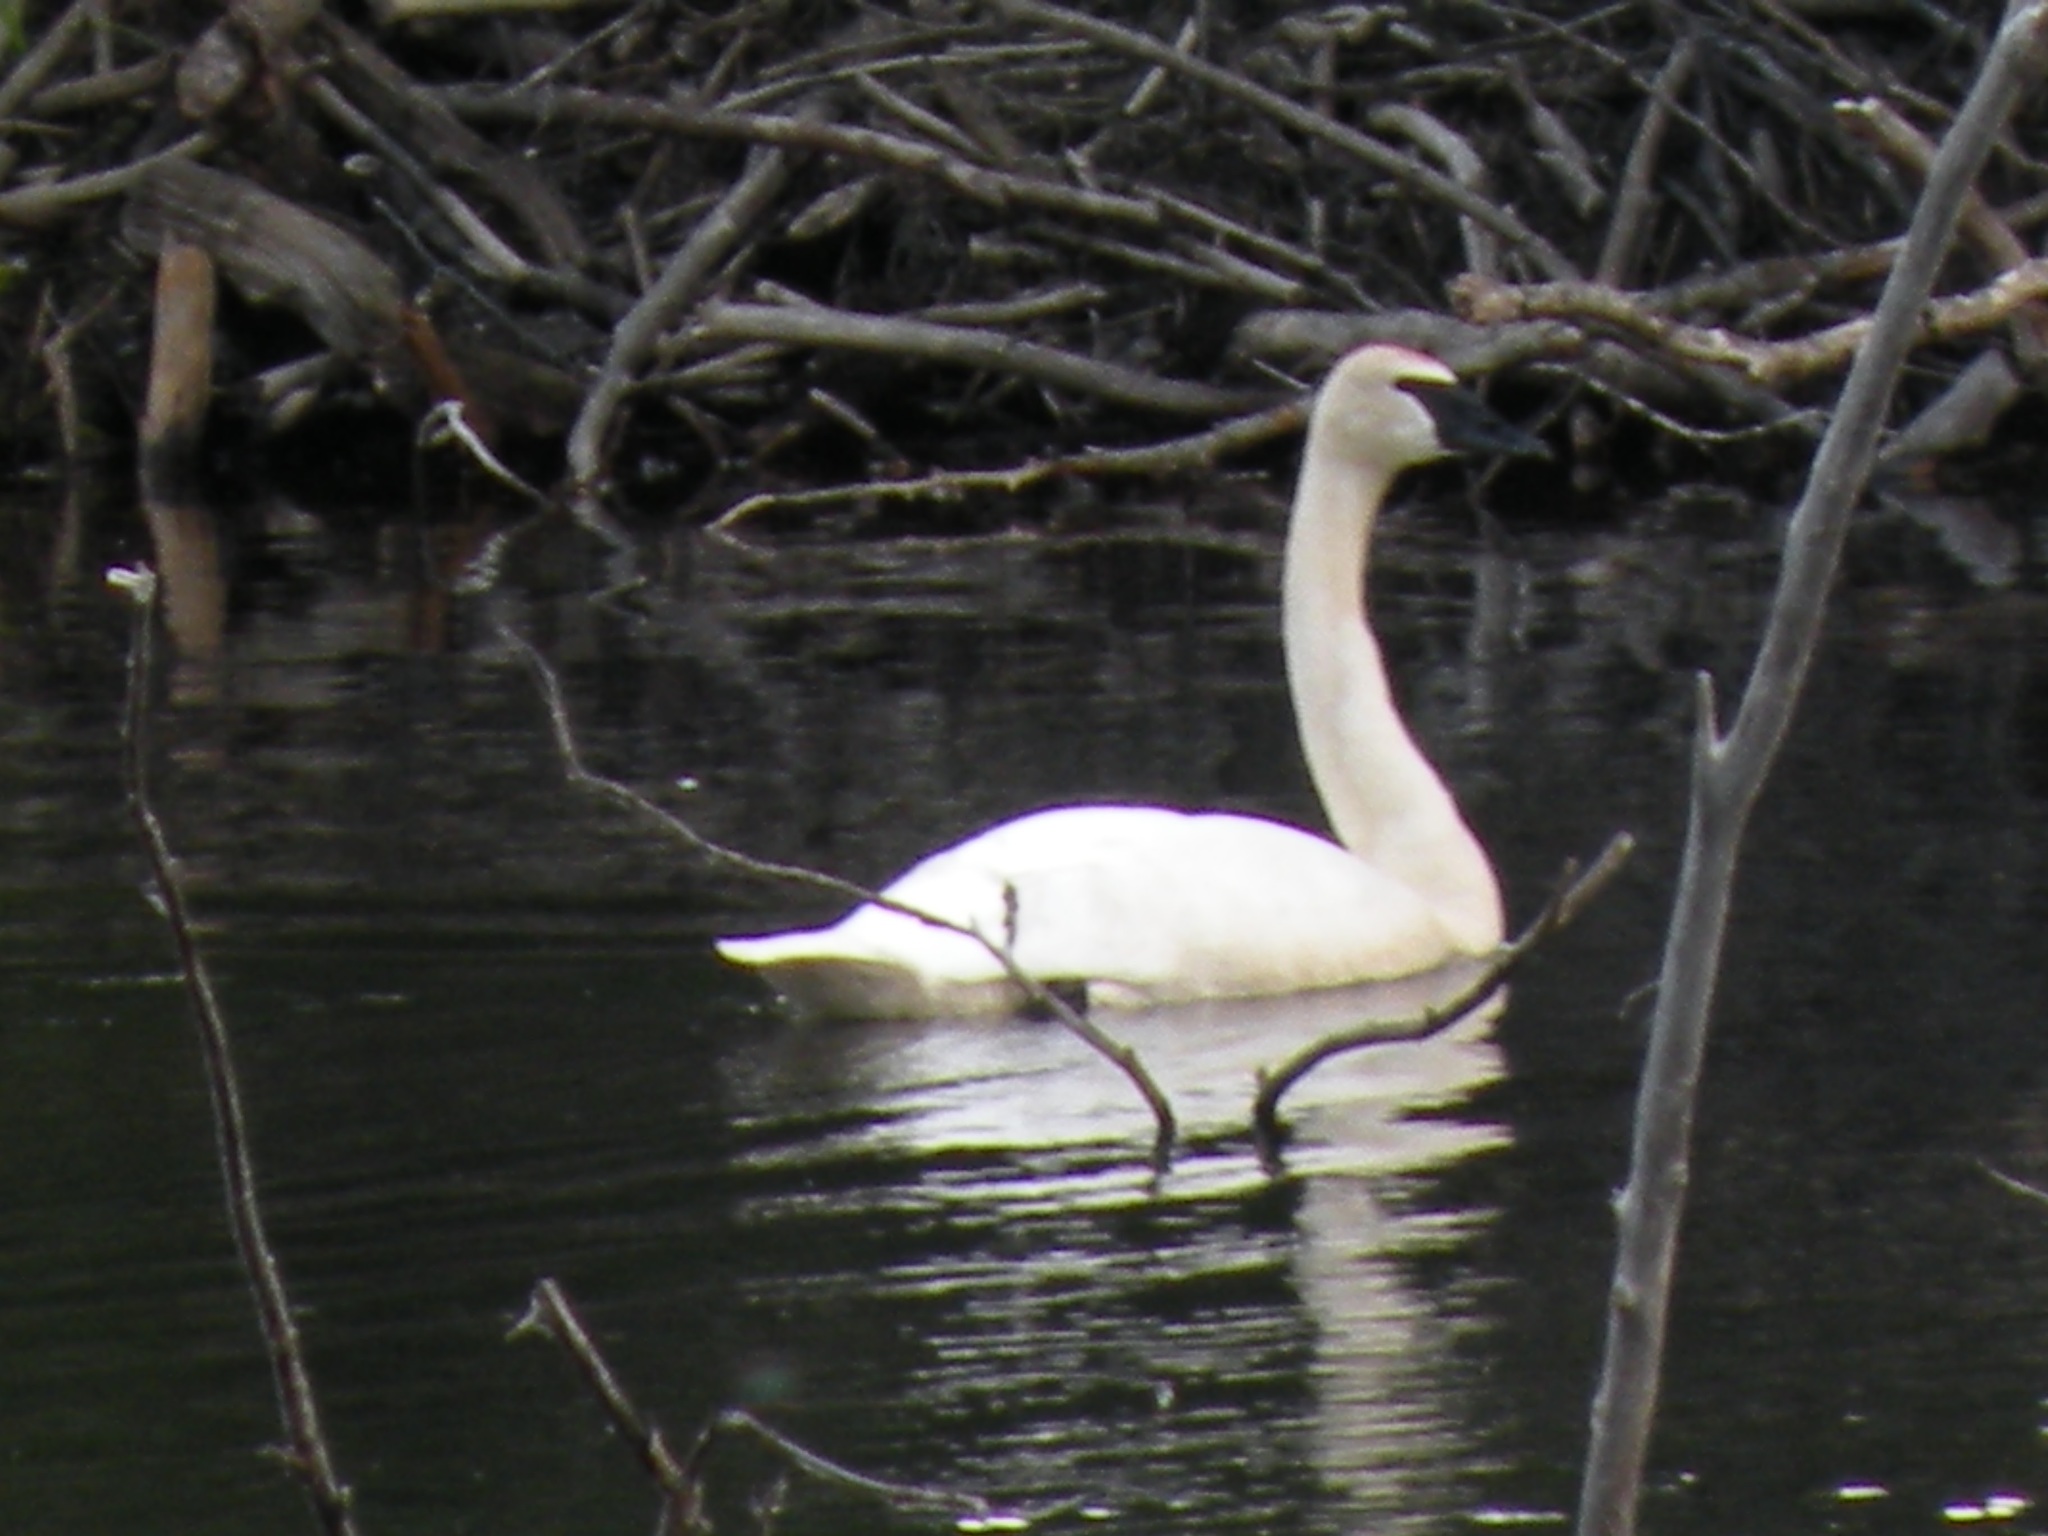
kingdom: Animalia
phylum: Chordata
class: Aves
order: Anseriformes
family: Anatidae
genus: Cygnus
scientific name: Cygnus buccinator
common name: Trumpeter swan
